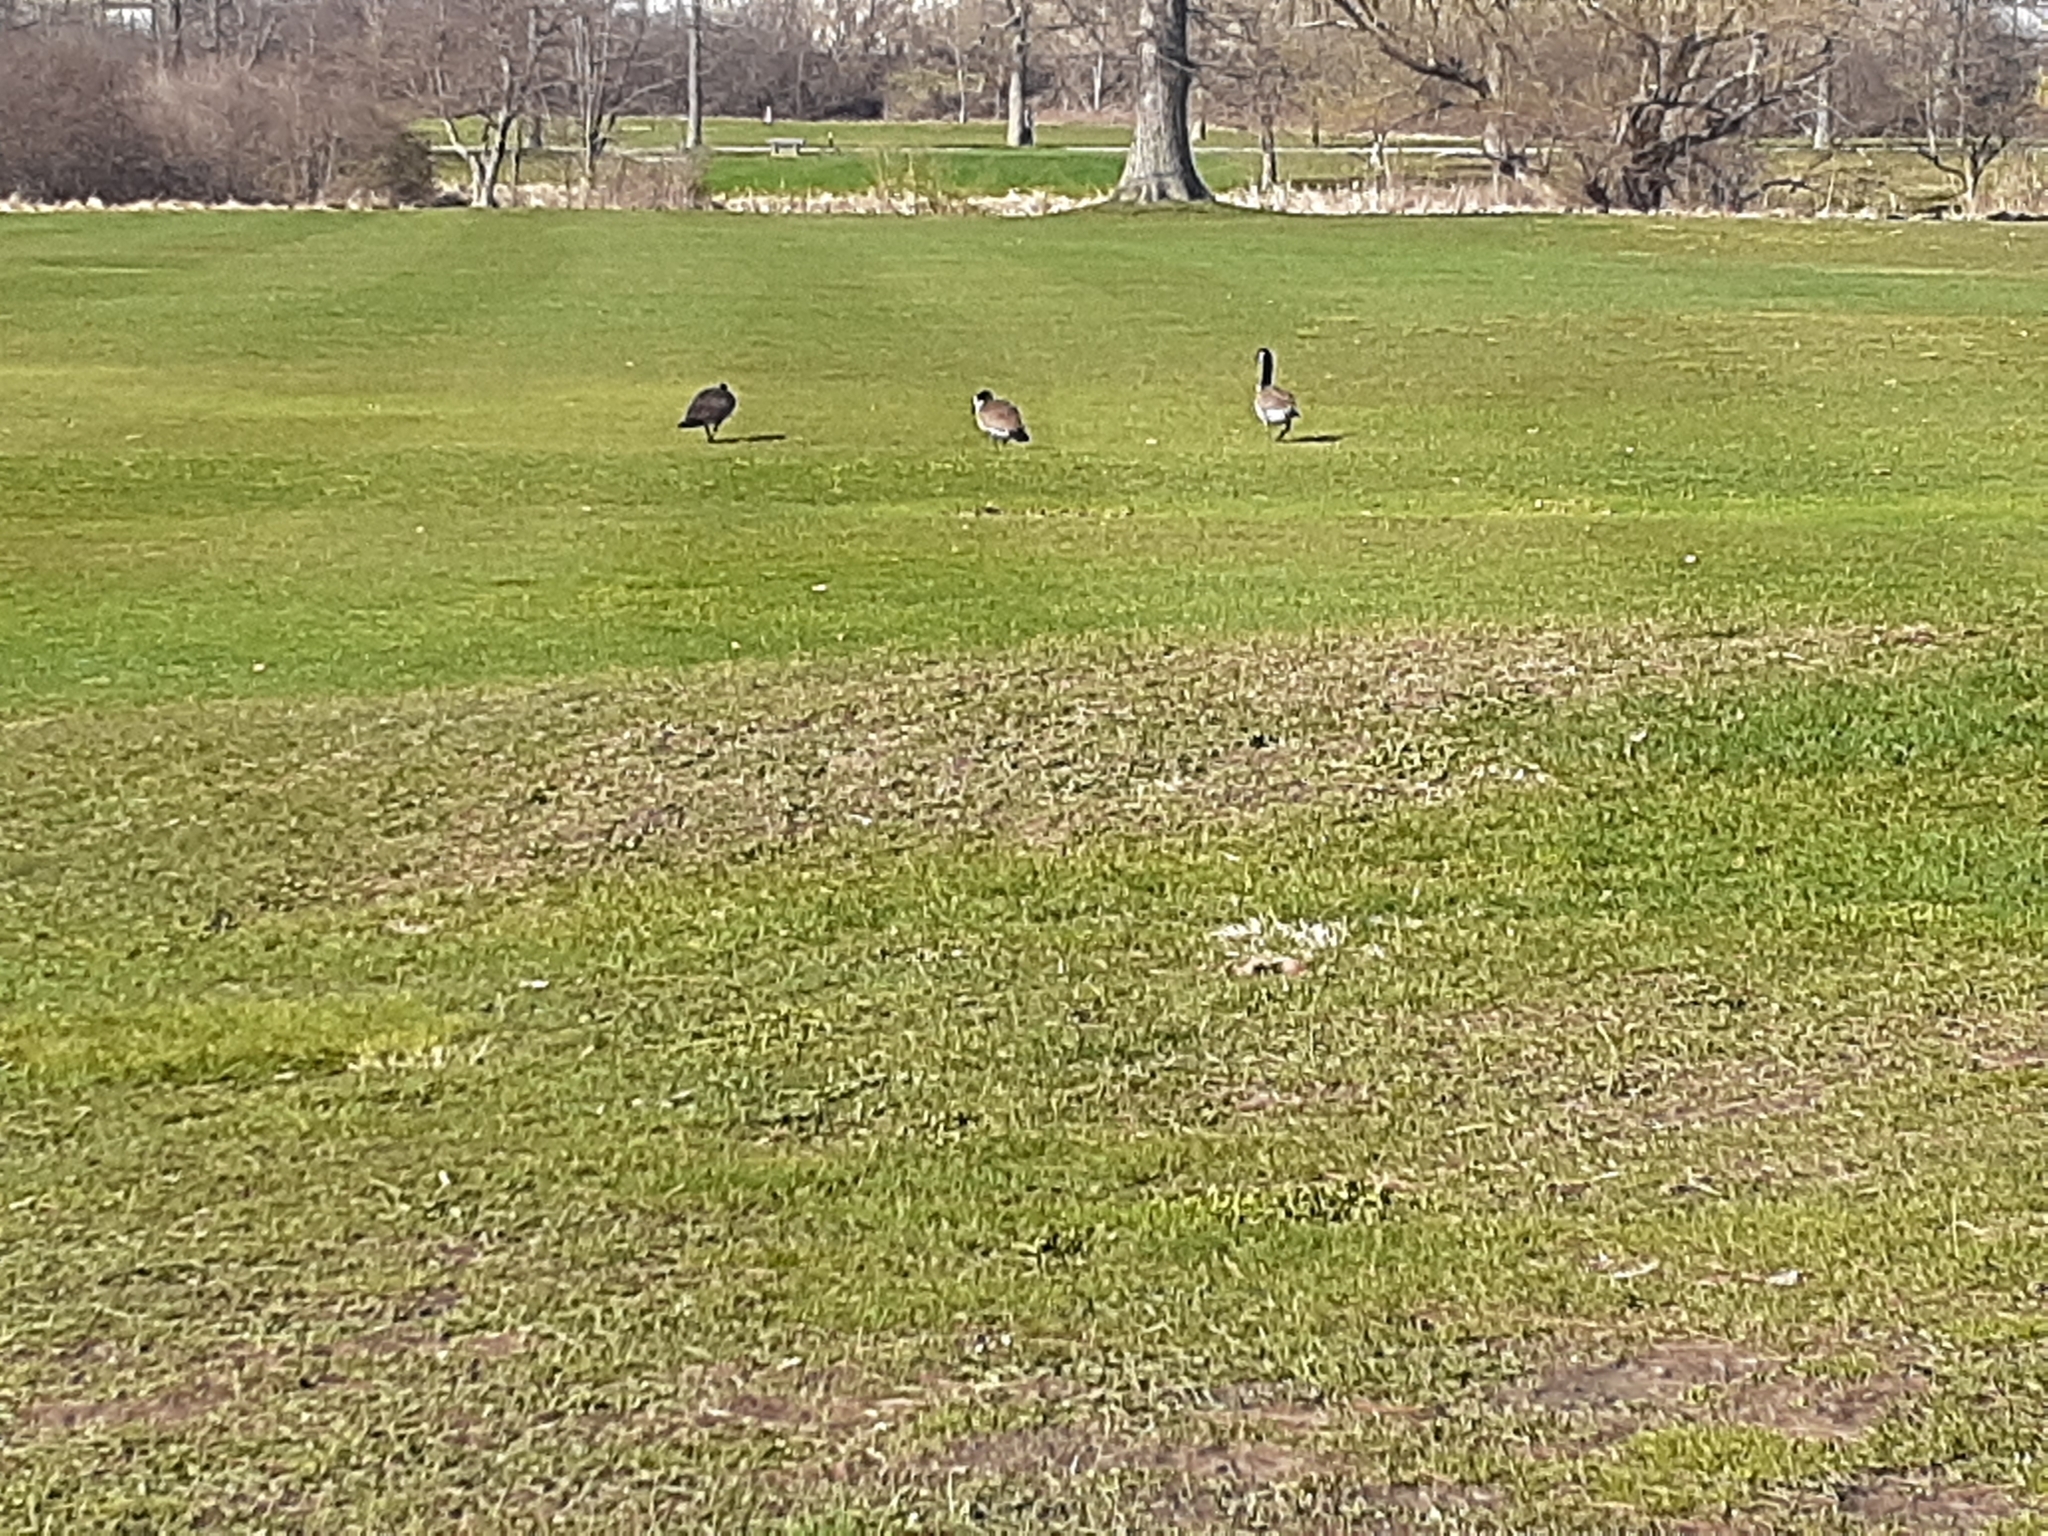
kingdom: Animalia
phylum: Chordata
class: Aves
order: Anseriformes
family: Anatidae
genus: Branta
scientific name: Branta canadensis
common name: Canada goose
